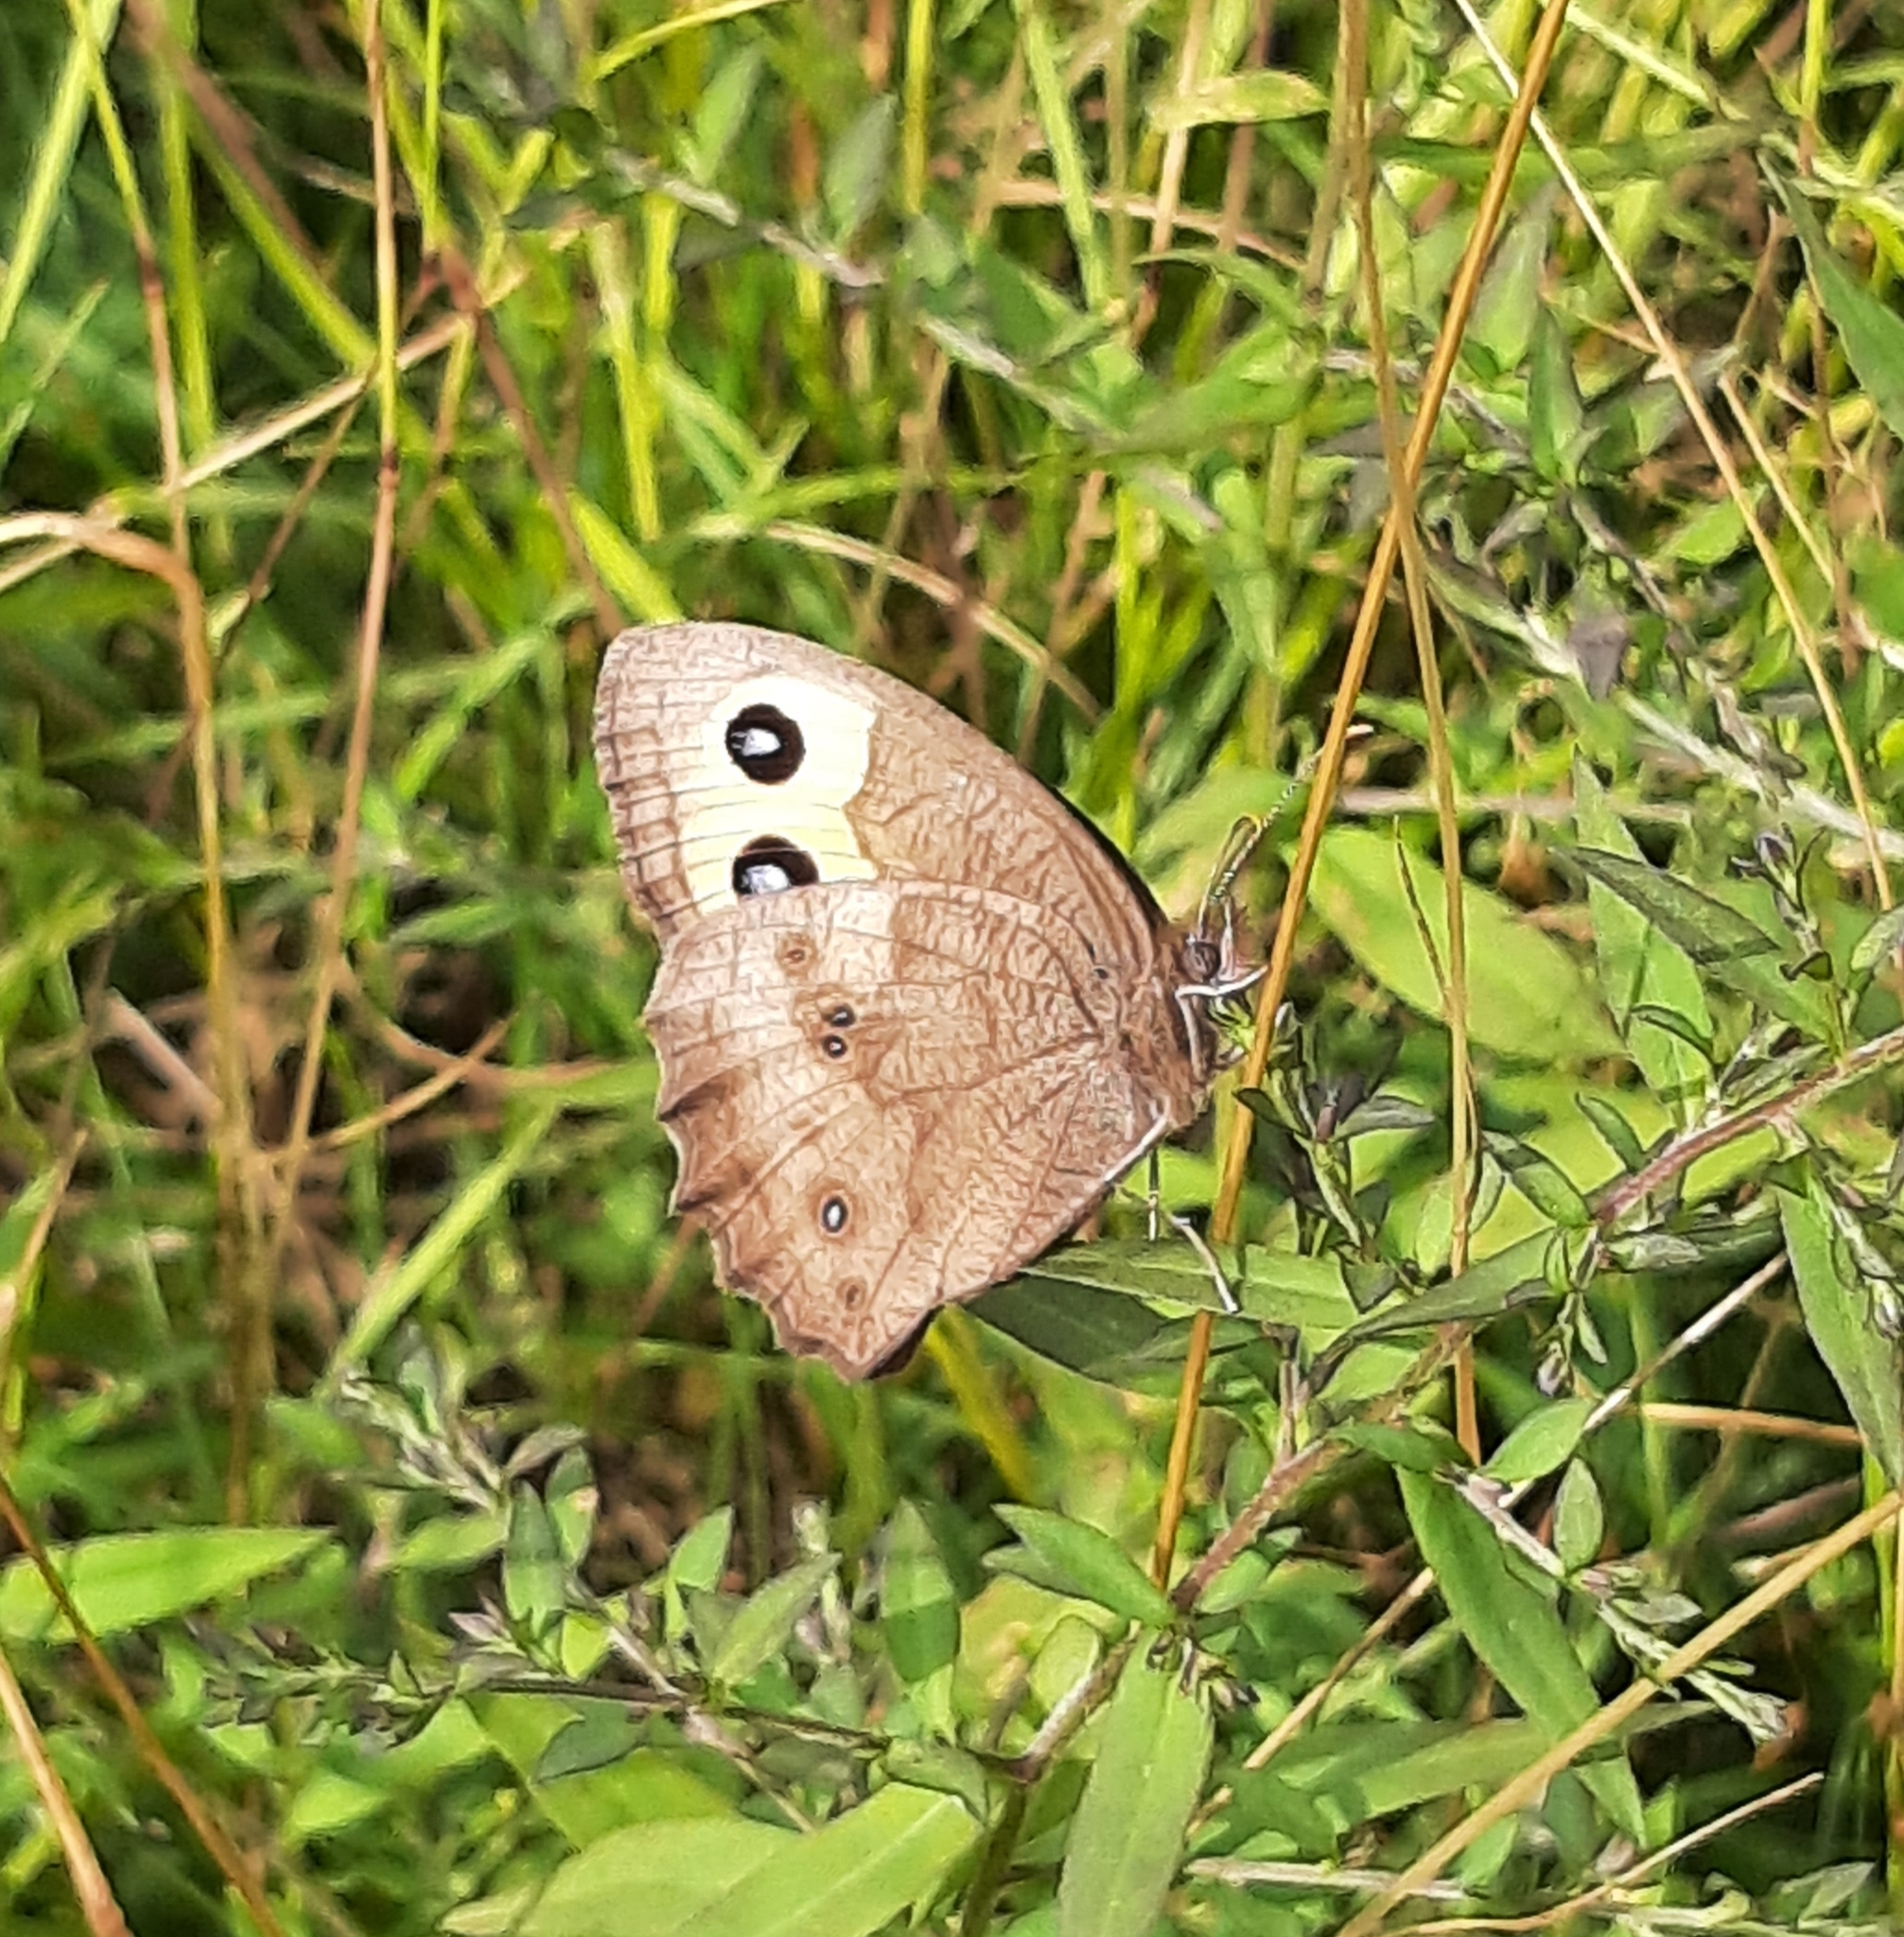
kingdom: Animalia
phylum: Arthropoda
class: Insecta
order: Lepidoptera
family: Nymphalidae
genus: Cercyonis
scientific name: Cercyonis pegala
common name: Common wood-nymph
